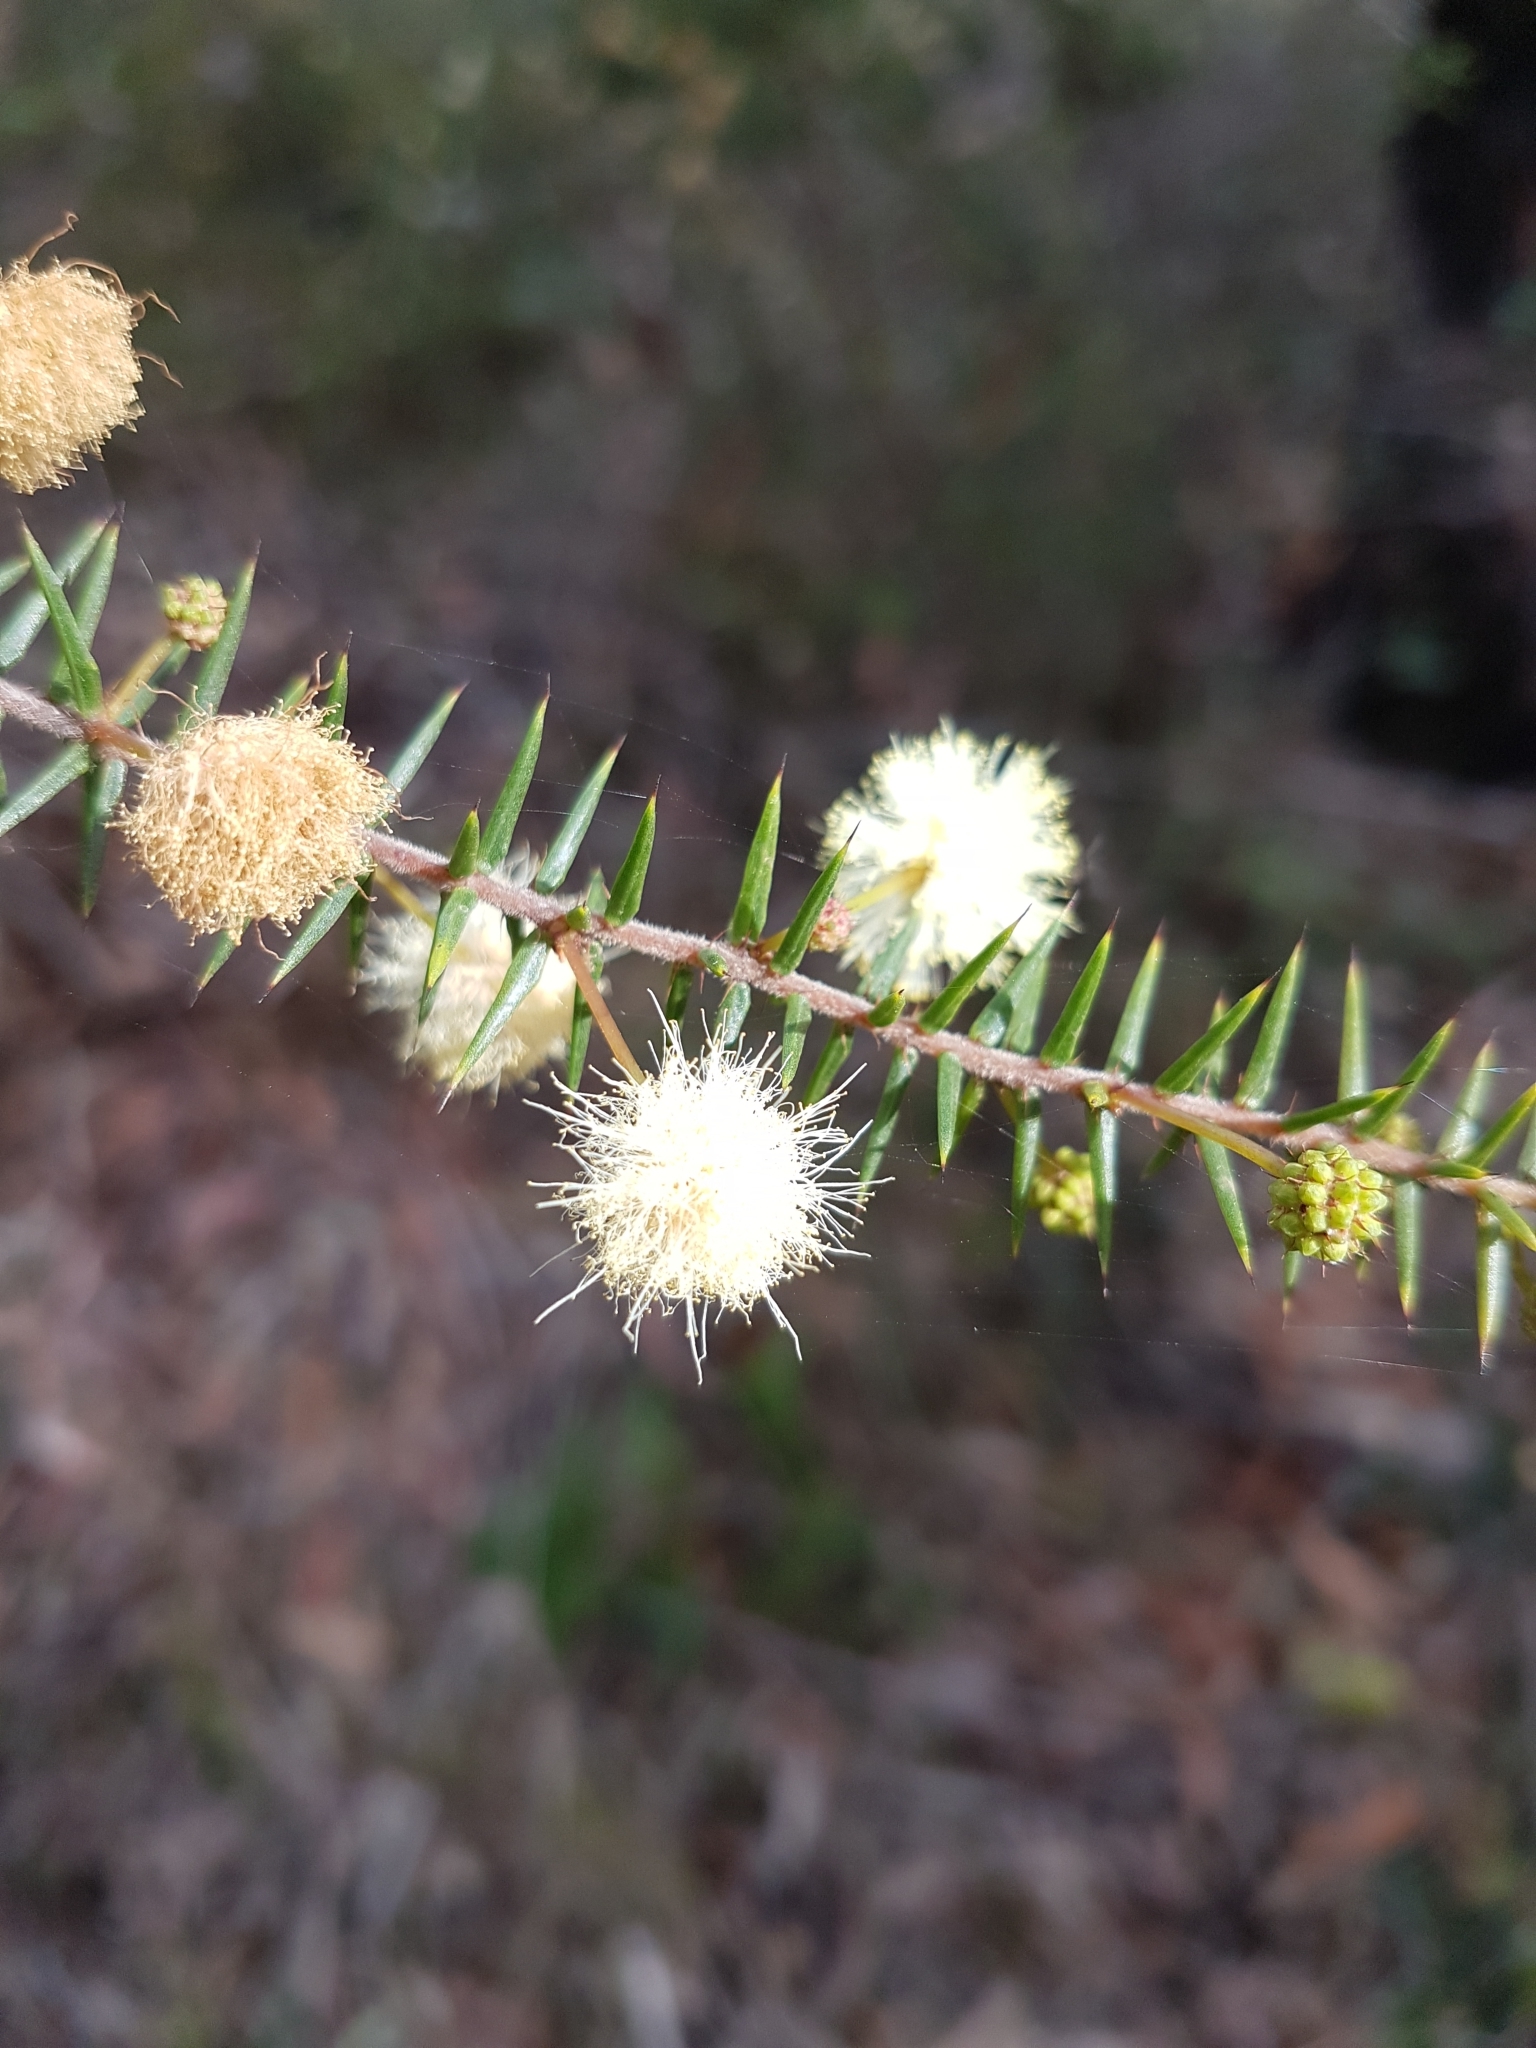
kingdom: Plantae
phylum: Tracheophyta
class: Magnoliopsida
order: Fabales
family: Fabaceae
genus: Acacia
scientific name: Acacia ulicifolia
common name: Juniper wattle
